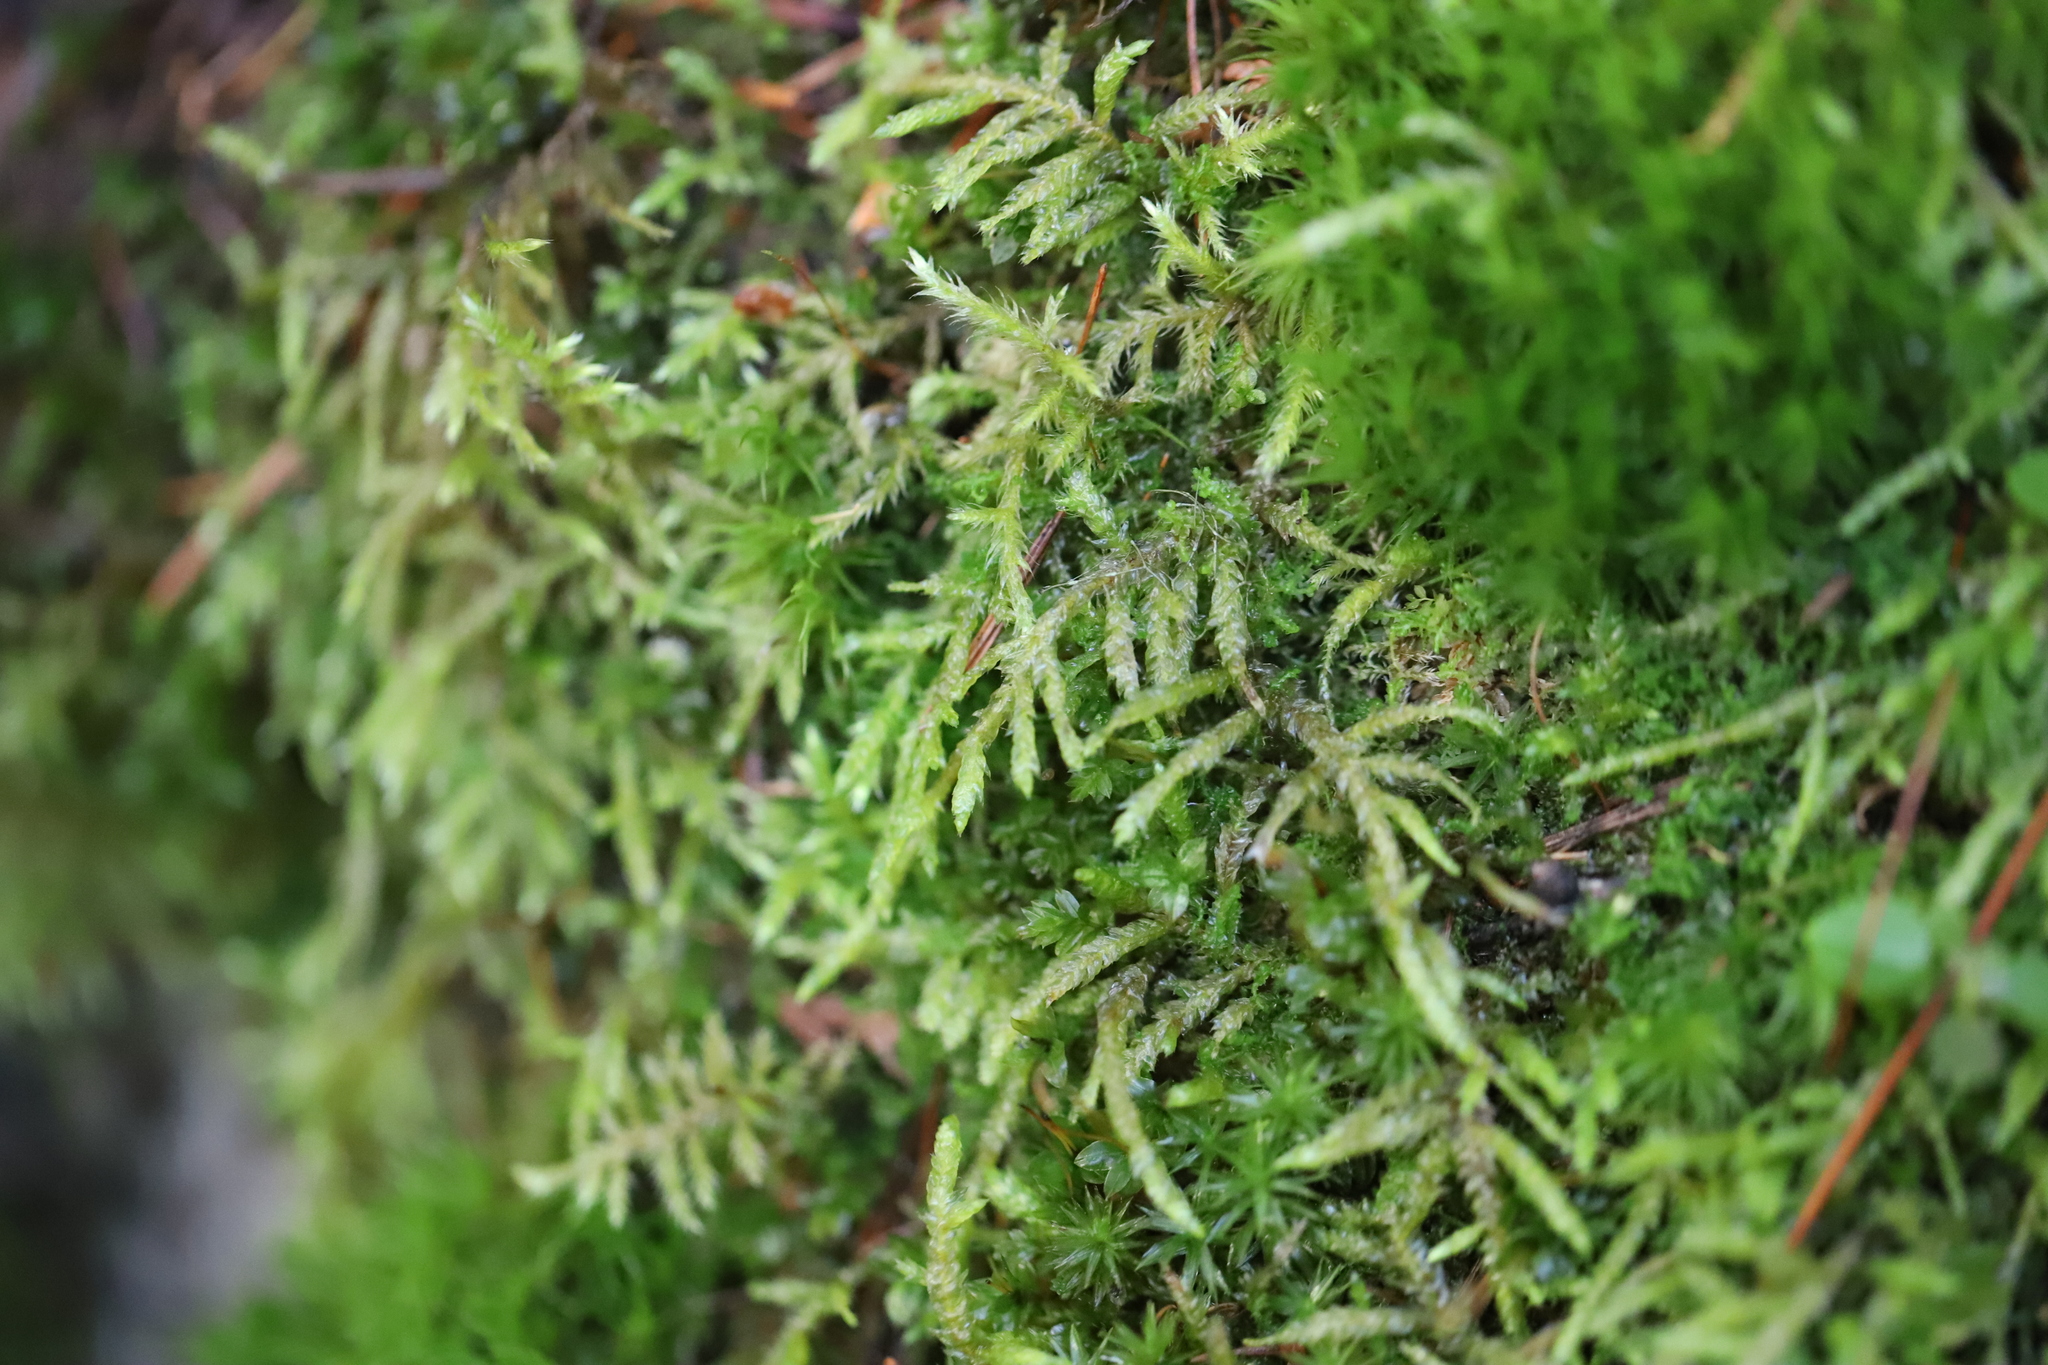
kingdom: Plantae
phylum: Bryophyta
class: Bryopsida
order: Hypnales
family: Hylocomiaceae
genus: Pleurozium
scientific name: Pleurozium schreberi
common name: Red-stemmed feather moss
